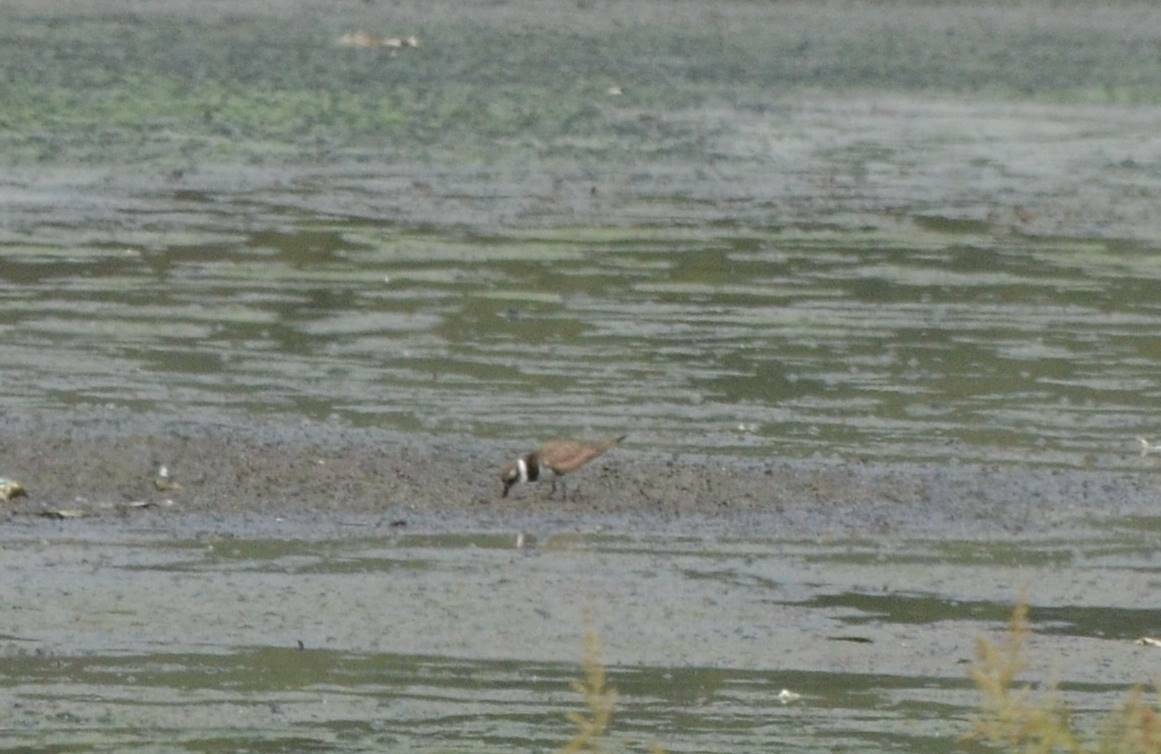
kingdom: Animalia
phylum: Chordata
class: Aves
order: Charadriiformes
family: Charadriidae
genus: Charadrius
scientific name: Charadrius dubius
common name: Little ringed plover
